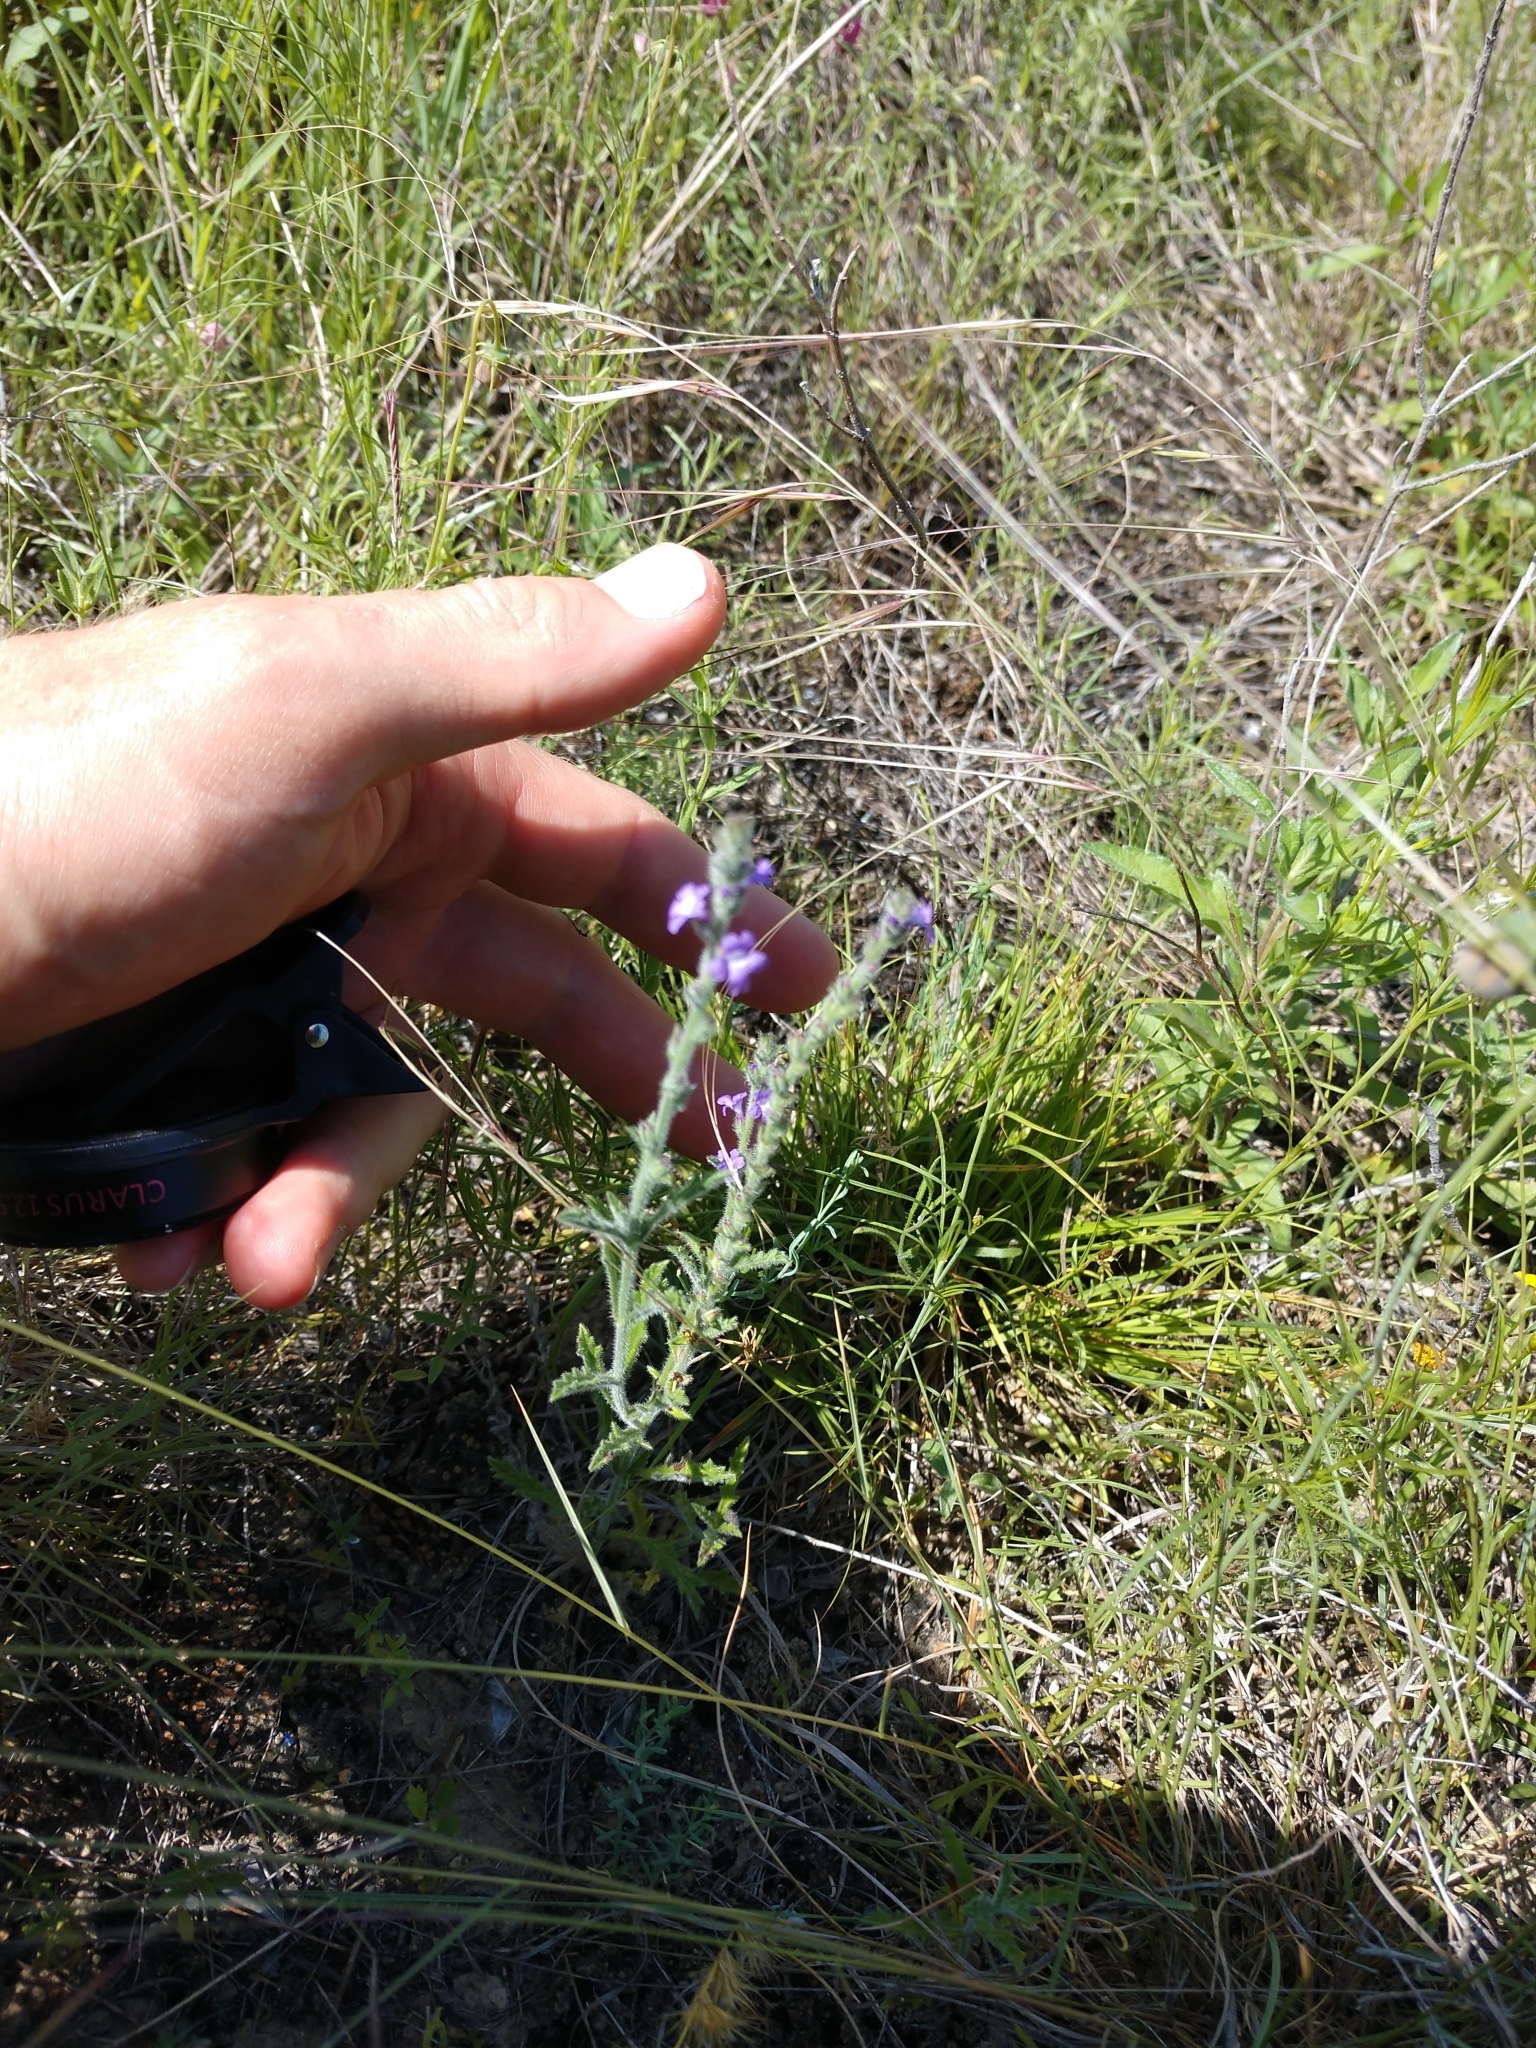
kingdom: Plantae
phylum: Tracheophyta
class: Magnoliopsida
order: Lamiales
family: Verbenaceae
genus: Verbena
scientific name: Verbena canescens
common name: Gray vervain
